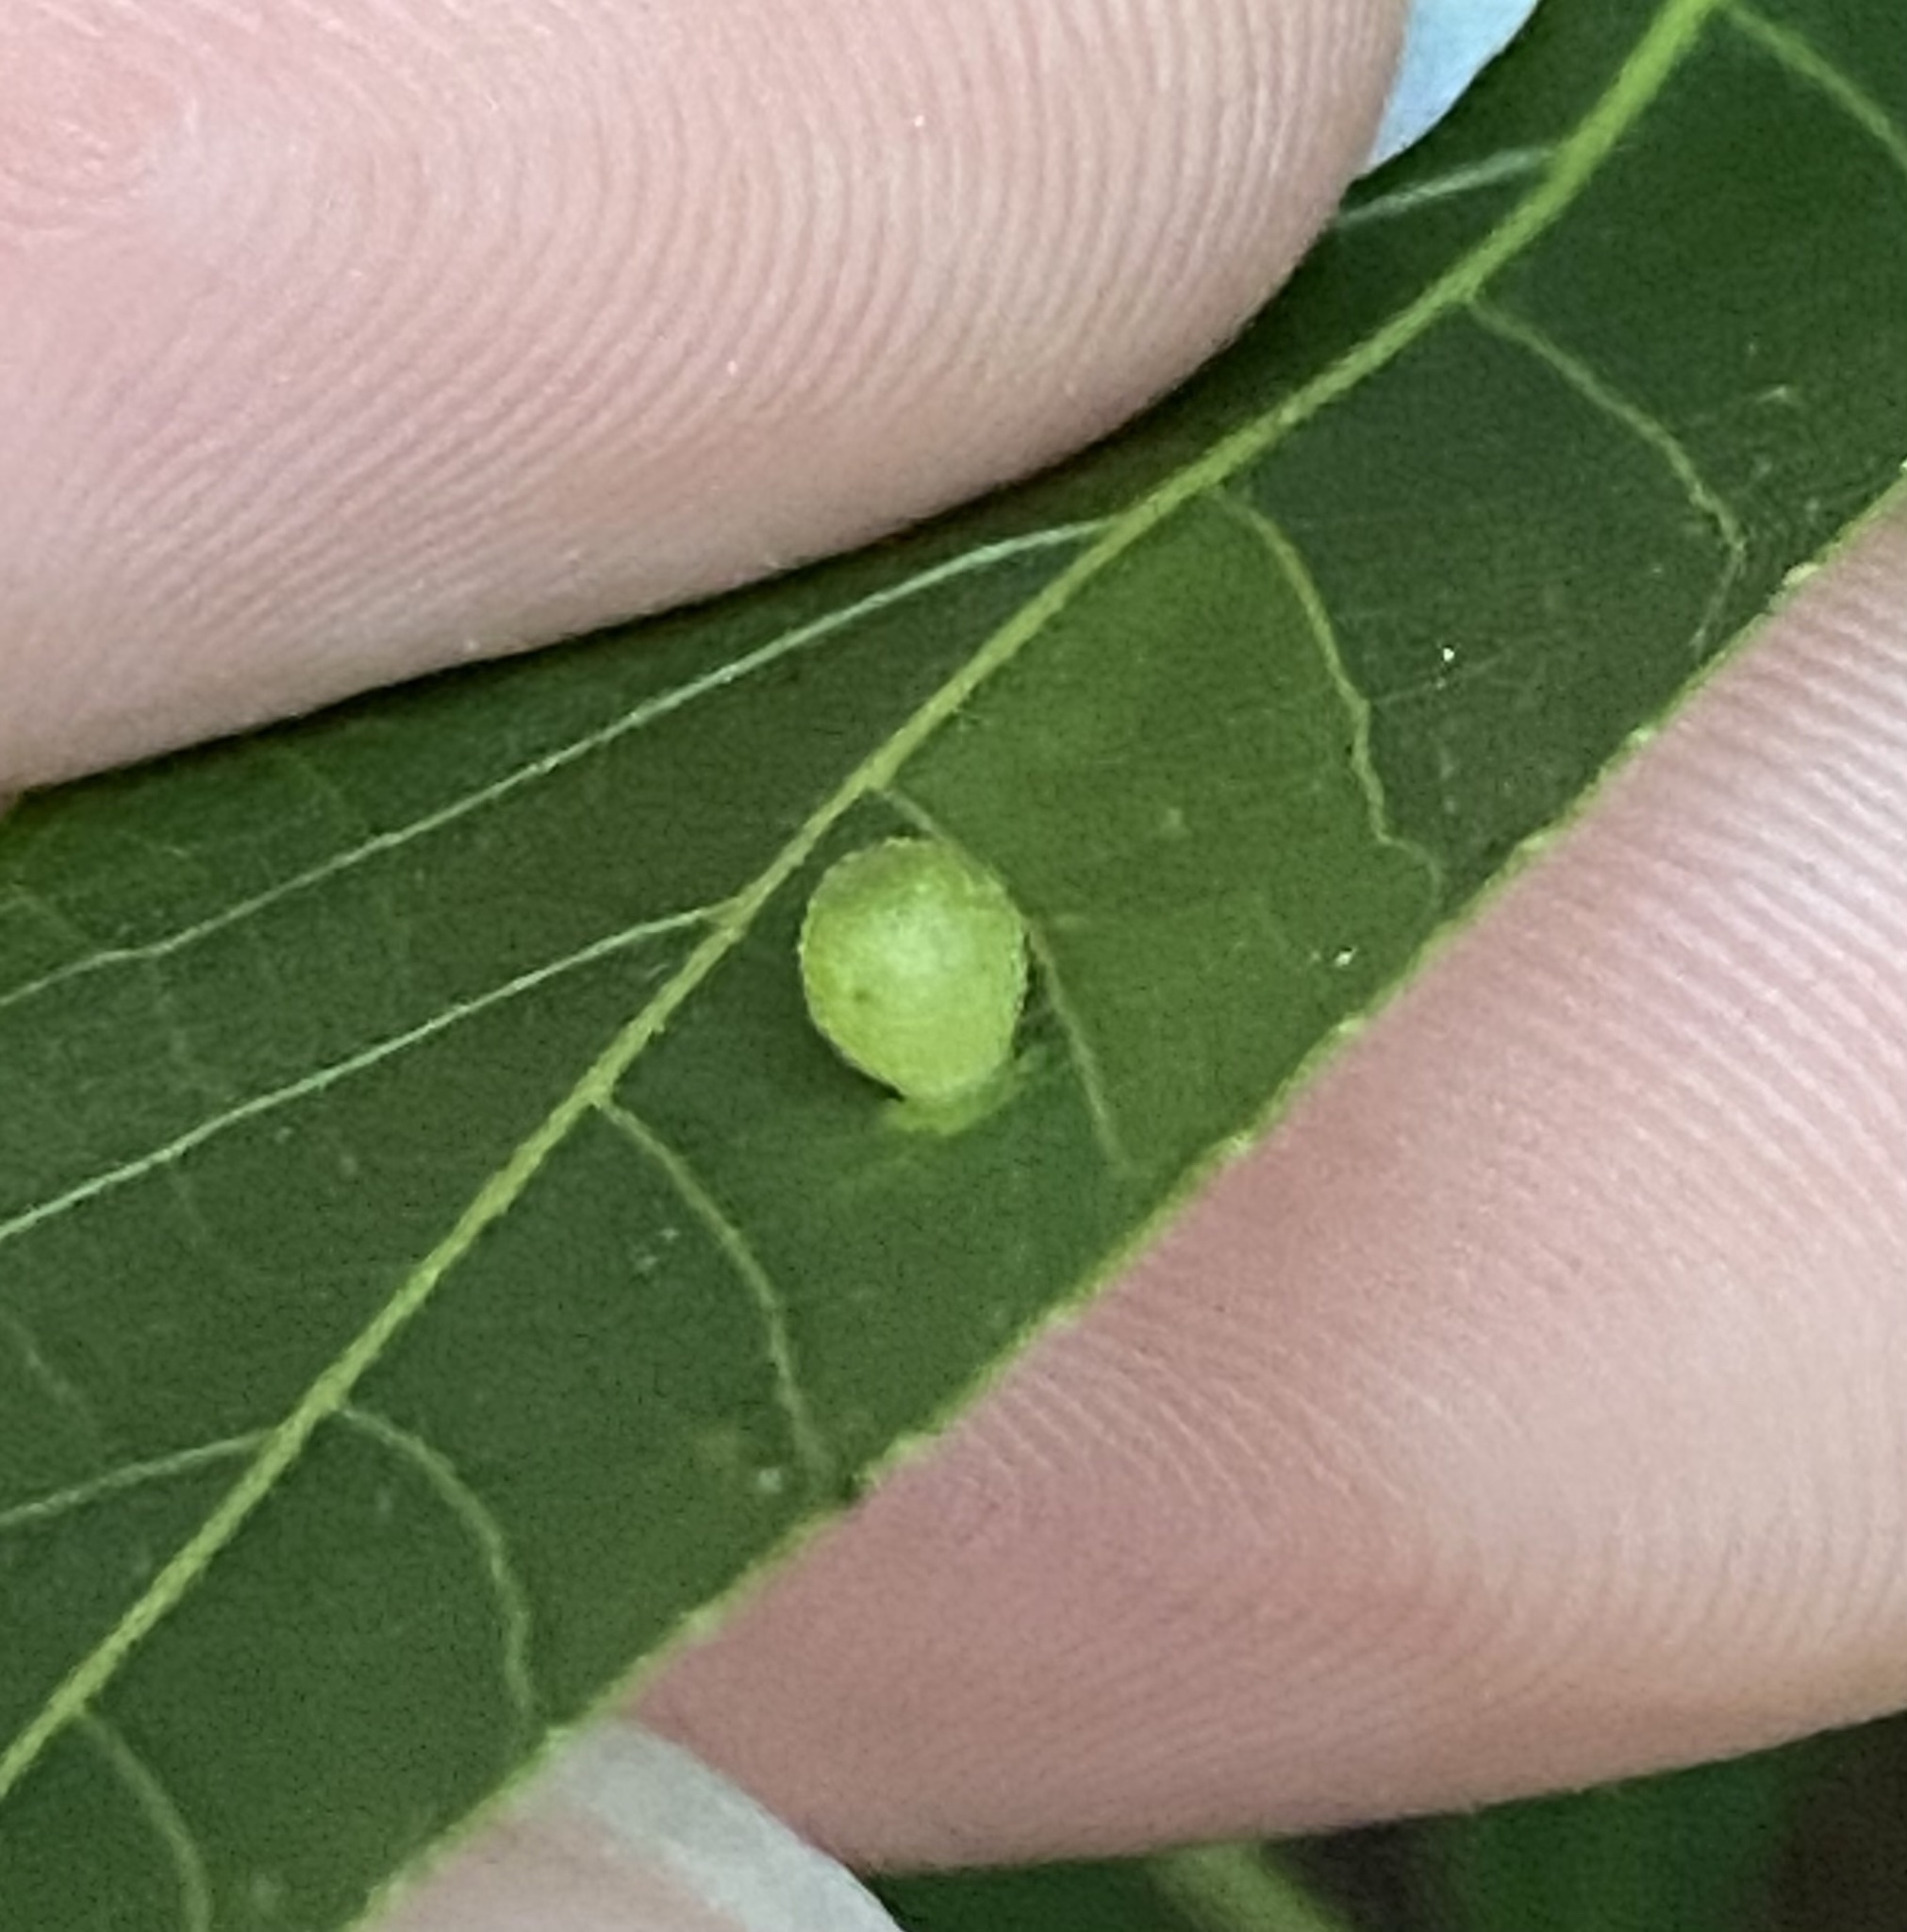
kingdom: Animalia
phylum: Arthropoda
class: Insecta
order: Diptera
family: Cecidomyiidae
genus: Caryomyia
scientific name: Caryomyia viscidolium
